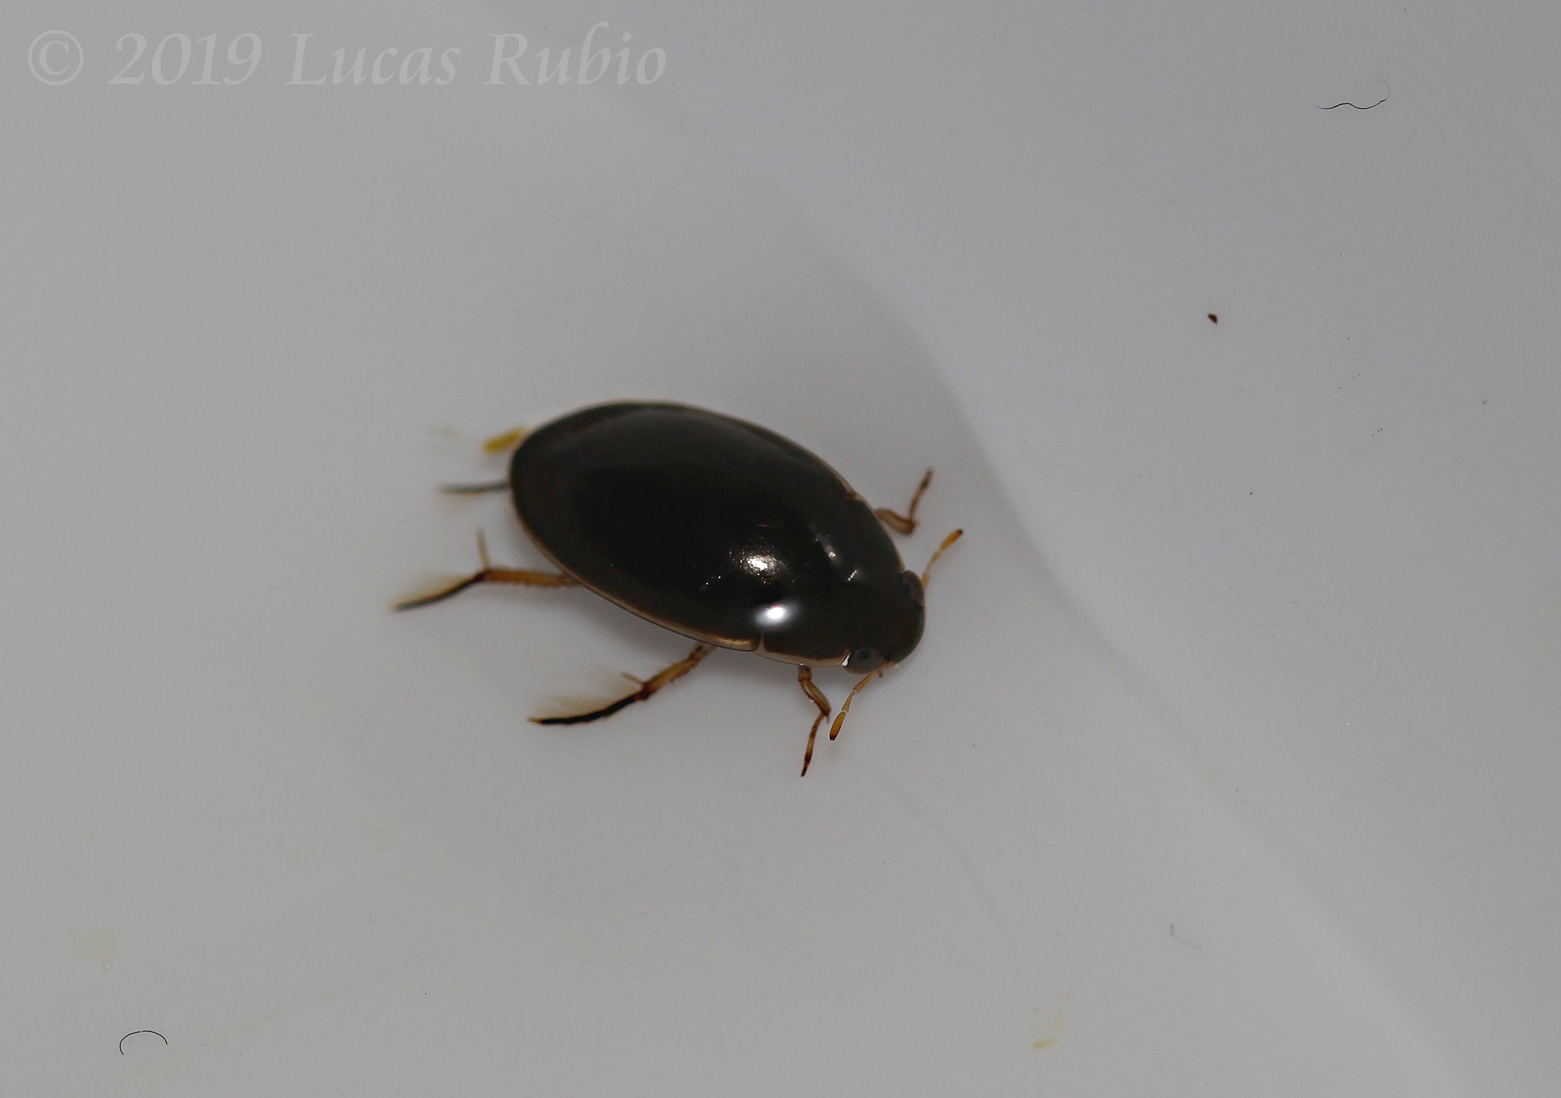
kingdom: Animalia
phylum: Arthropoda
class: Insecta
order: Coleoptera
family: Hydrophilidae
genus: Tropisternus
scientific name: Tropisternus lateralis
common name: Lateral-banded water scavenger beetle
